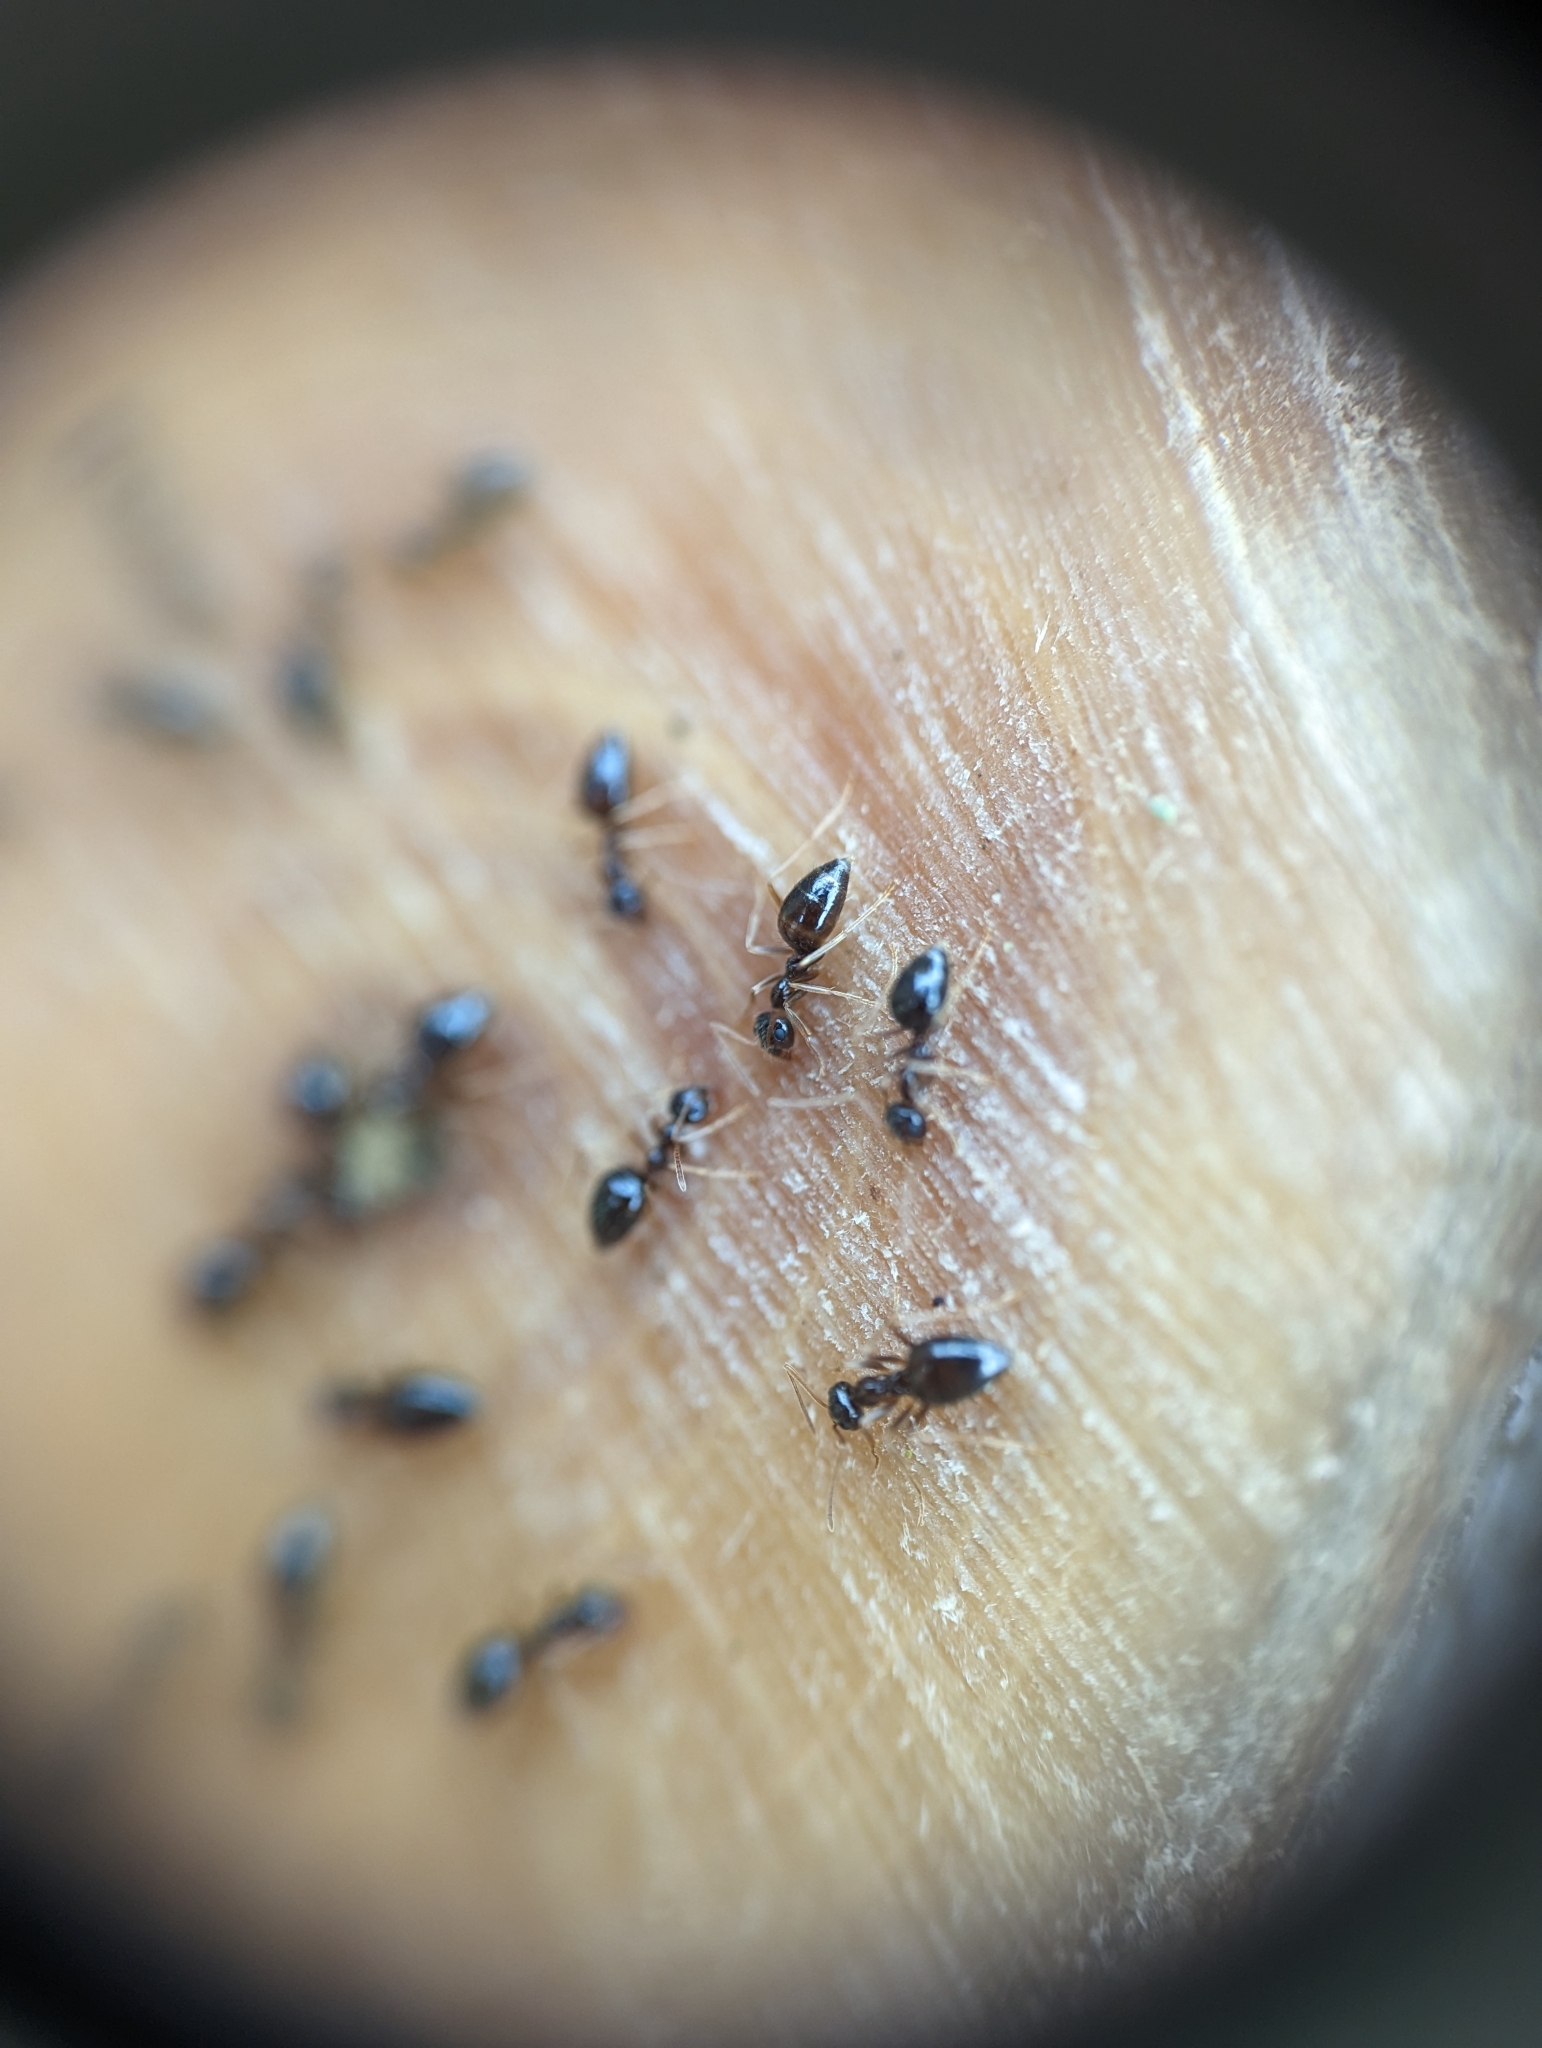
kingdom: Animalia
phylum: Arthropoda
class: Insecta
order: Hymenoptera
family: Formicidae
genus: Prenolepis
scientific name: Prenolepis imparis
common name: Small honey ant
